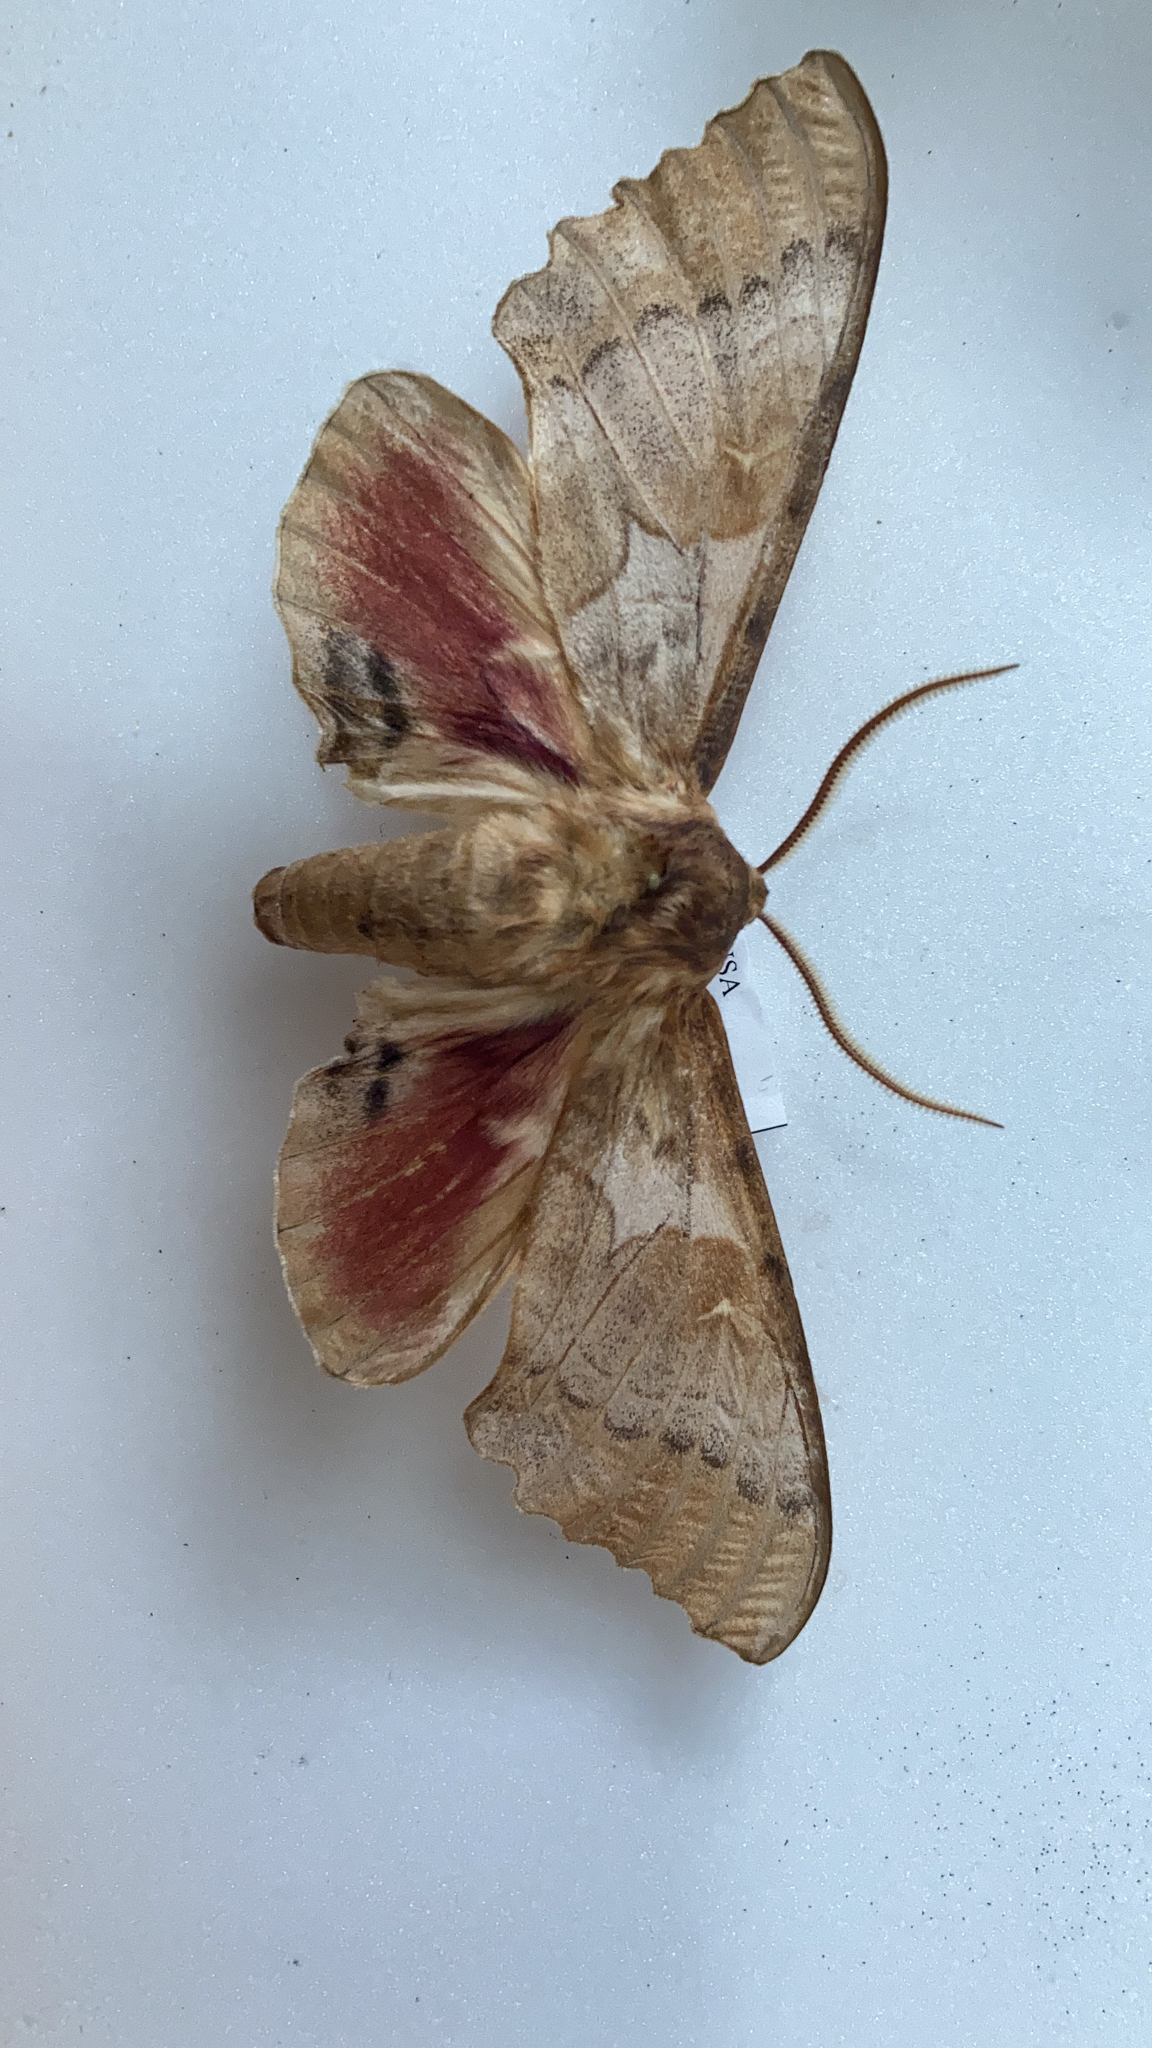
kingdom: Animalia
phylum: Arthropoda
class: Insecta
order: Lepidoptera
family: Sphingidae
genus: Pachysphinx
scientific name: Pachysphinx occidentalis
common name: Western poplar sphinx
